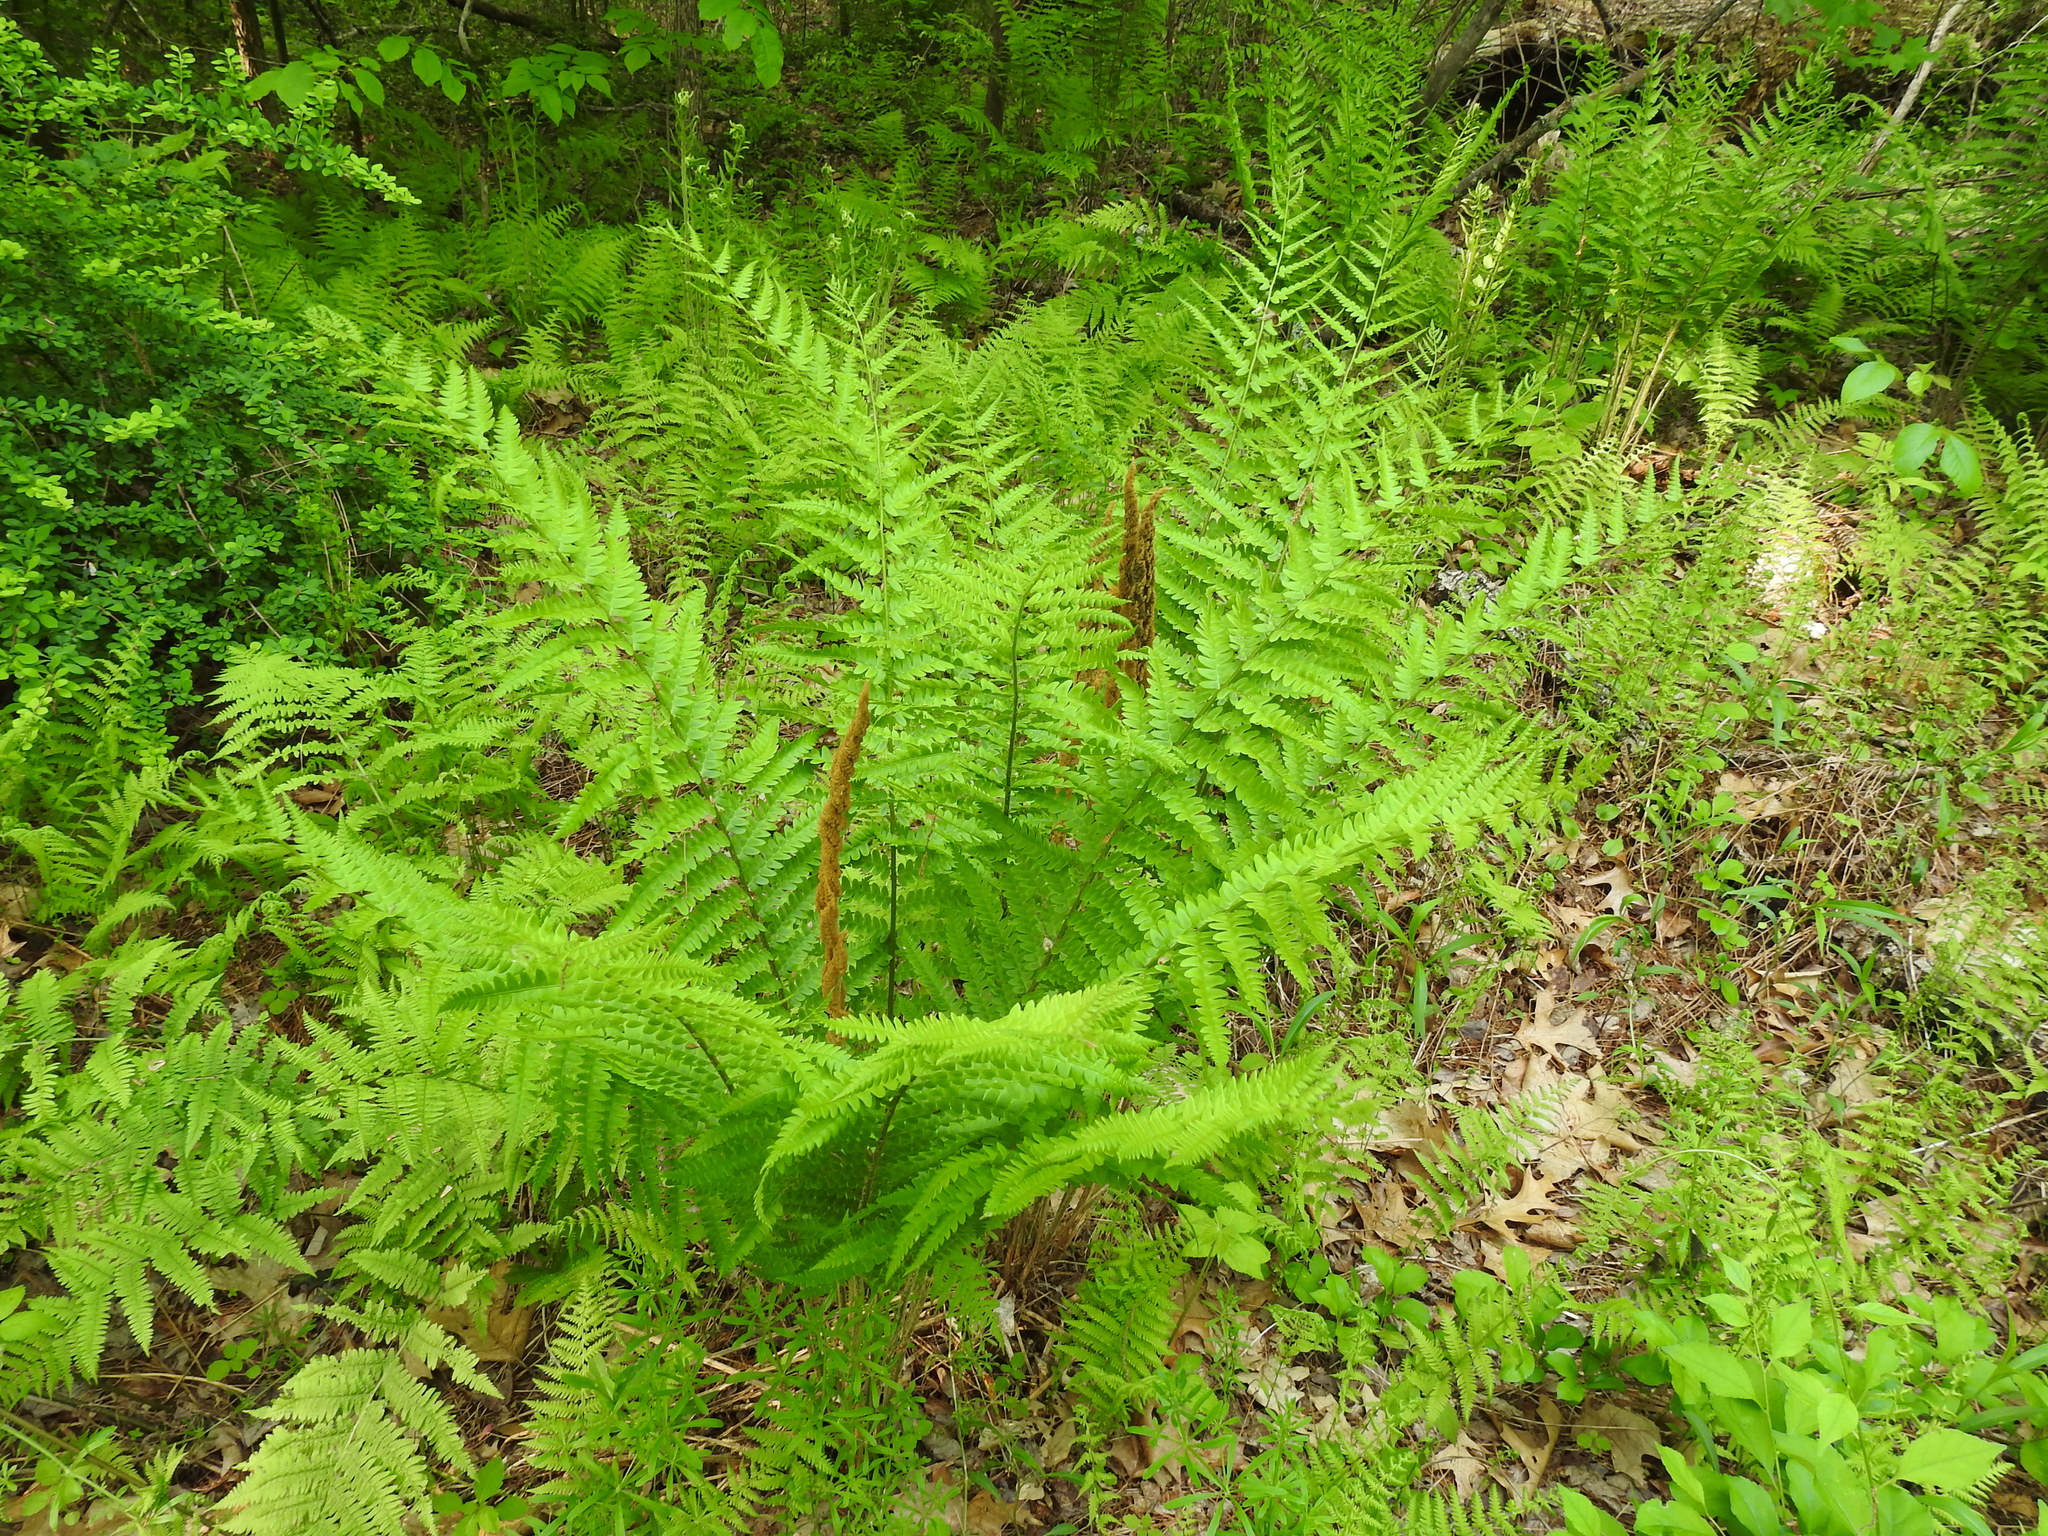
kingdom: Plantae
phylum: Tracheophyta
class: Polypodiopsida
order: Osmundales
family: Osmundaceae
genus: Osmundastrum
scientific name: Osmundastrum cinnamomeum
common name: Cinnamon fern
